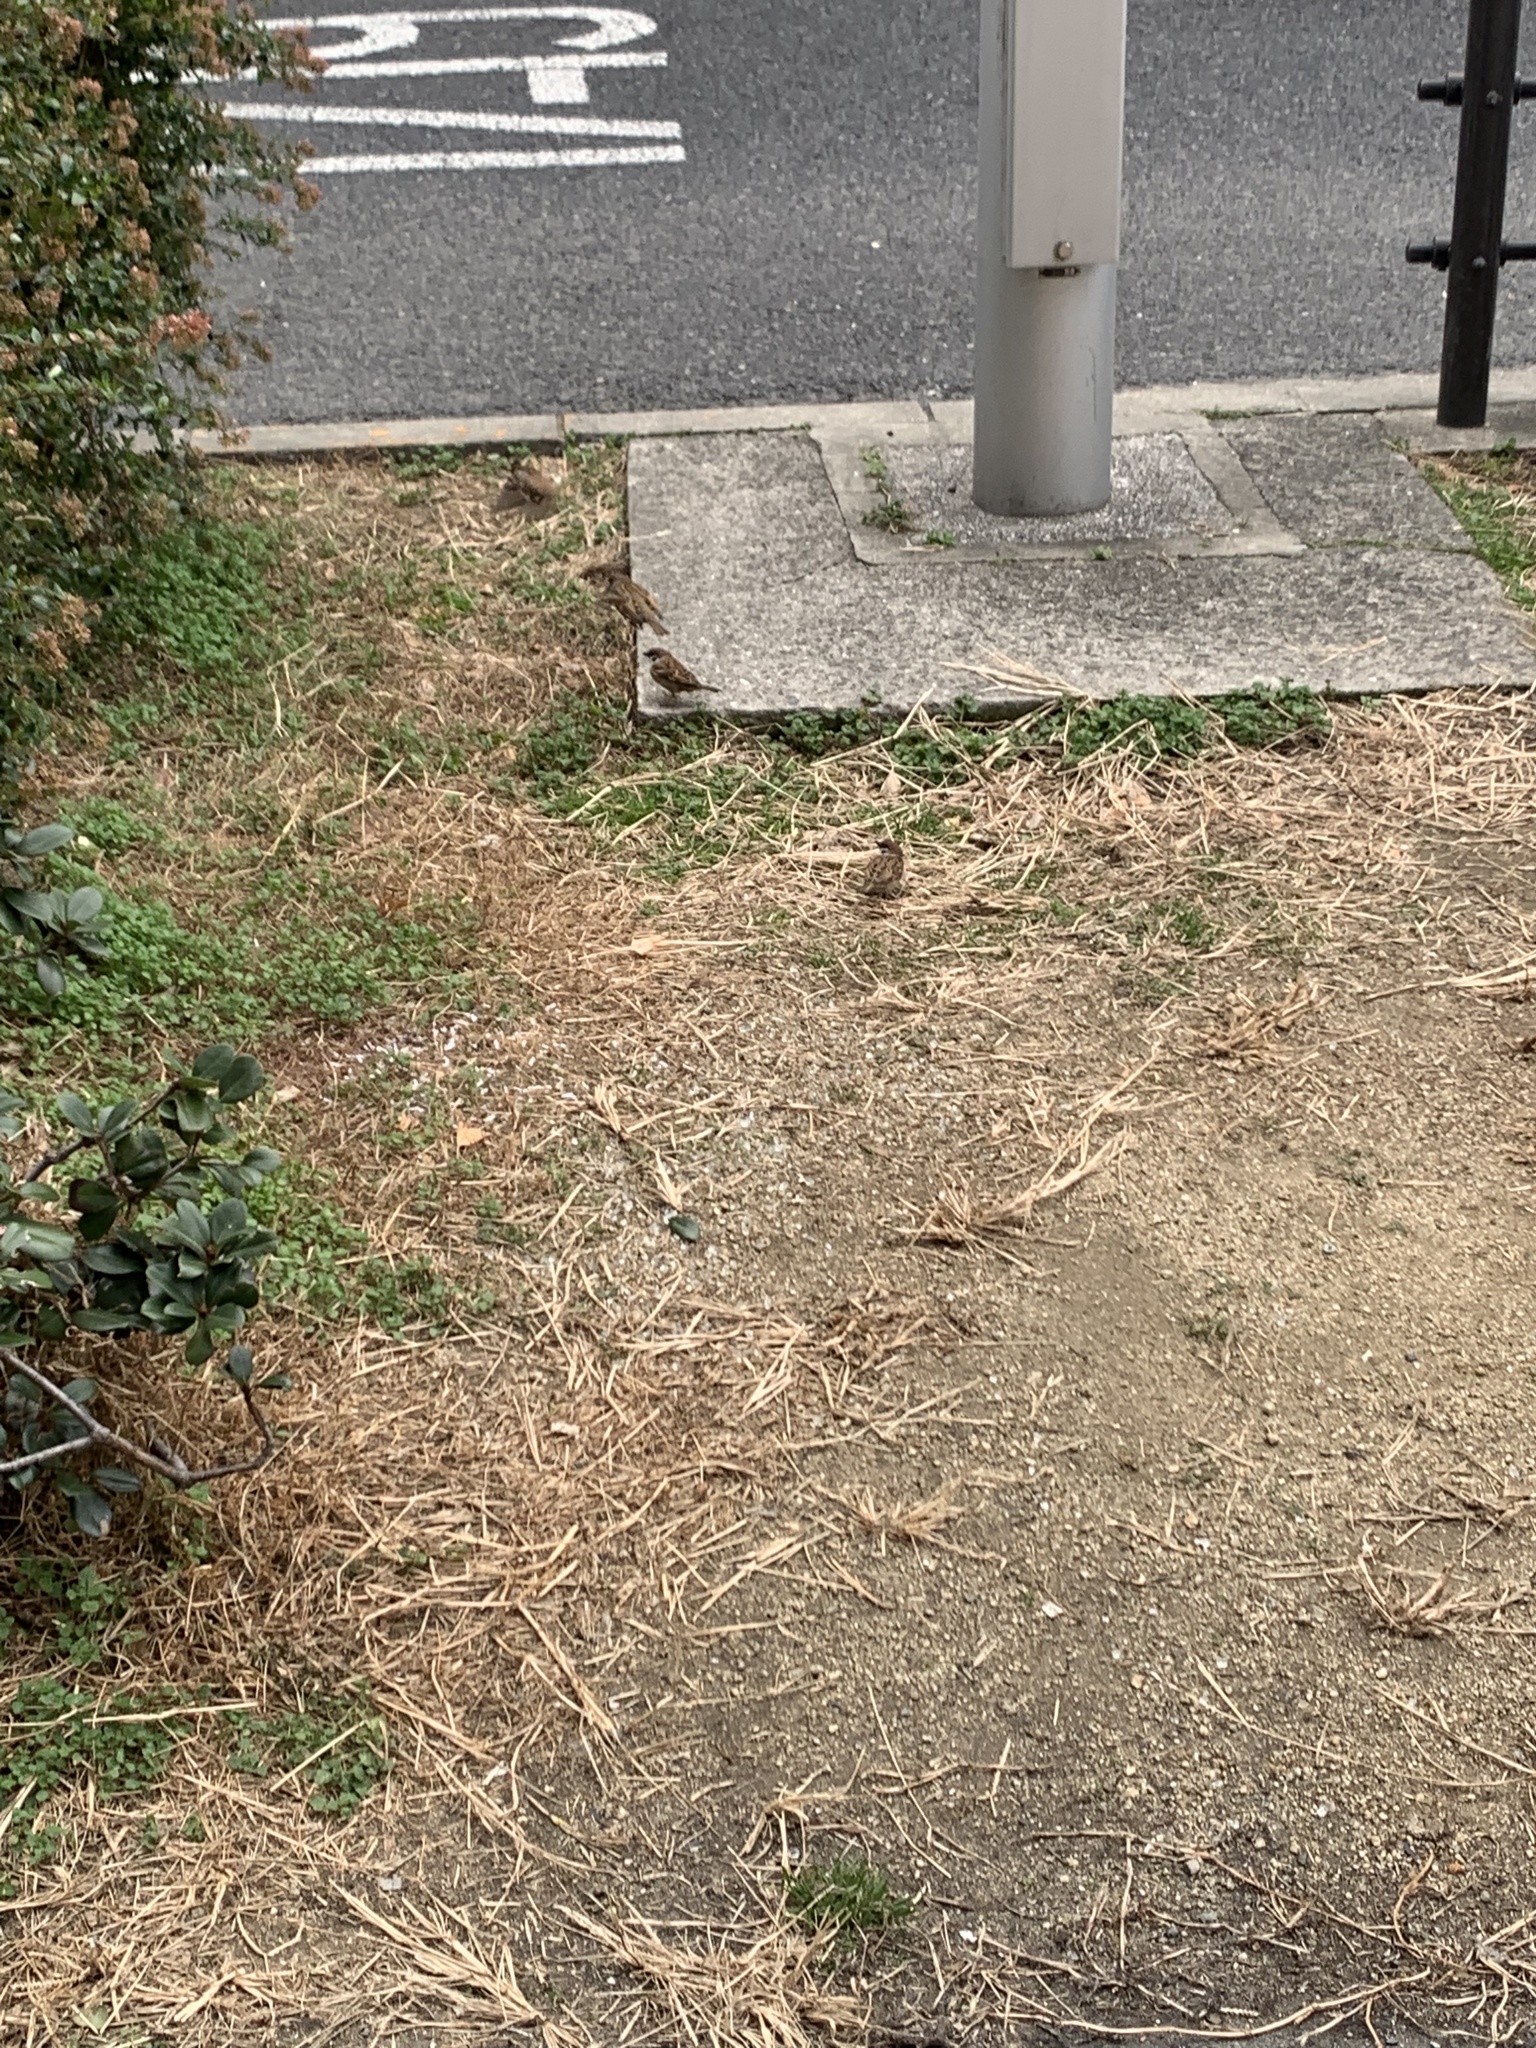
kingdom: Animalia
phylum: Chordata
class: Aves
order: Passeriformes
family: Passeridae
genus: Passer
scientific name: Passer montanus
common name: Eurasian tree sparrow
